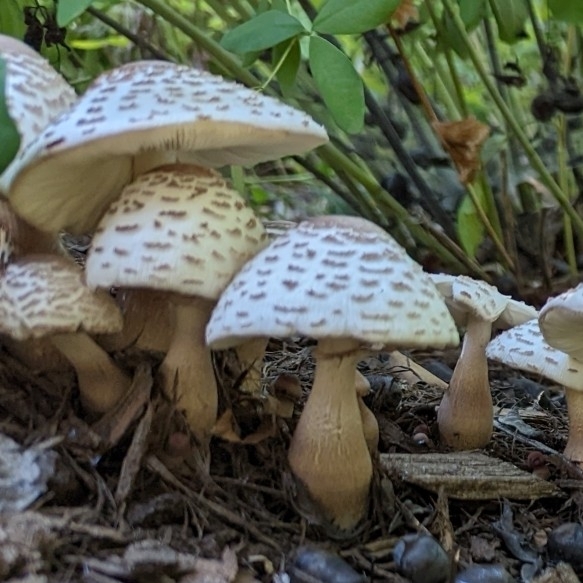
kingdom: Fungi
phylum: Basidiomycota
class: Agaricomycetes
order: Agaricales
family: Agaricaceae
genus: Leucoagaricus
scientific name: Leucoagaricus americanus
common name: Reddening lepiota
